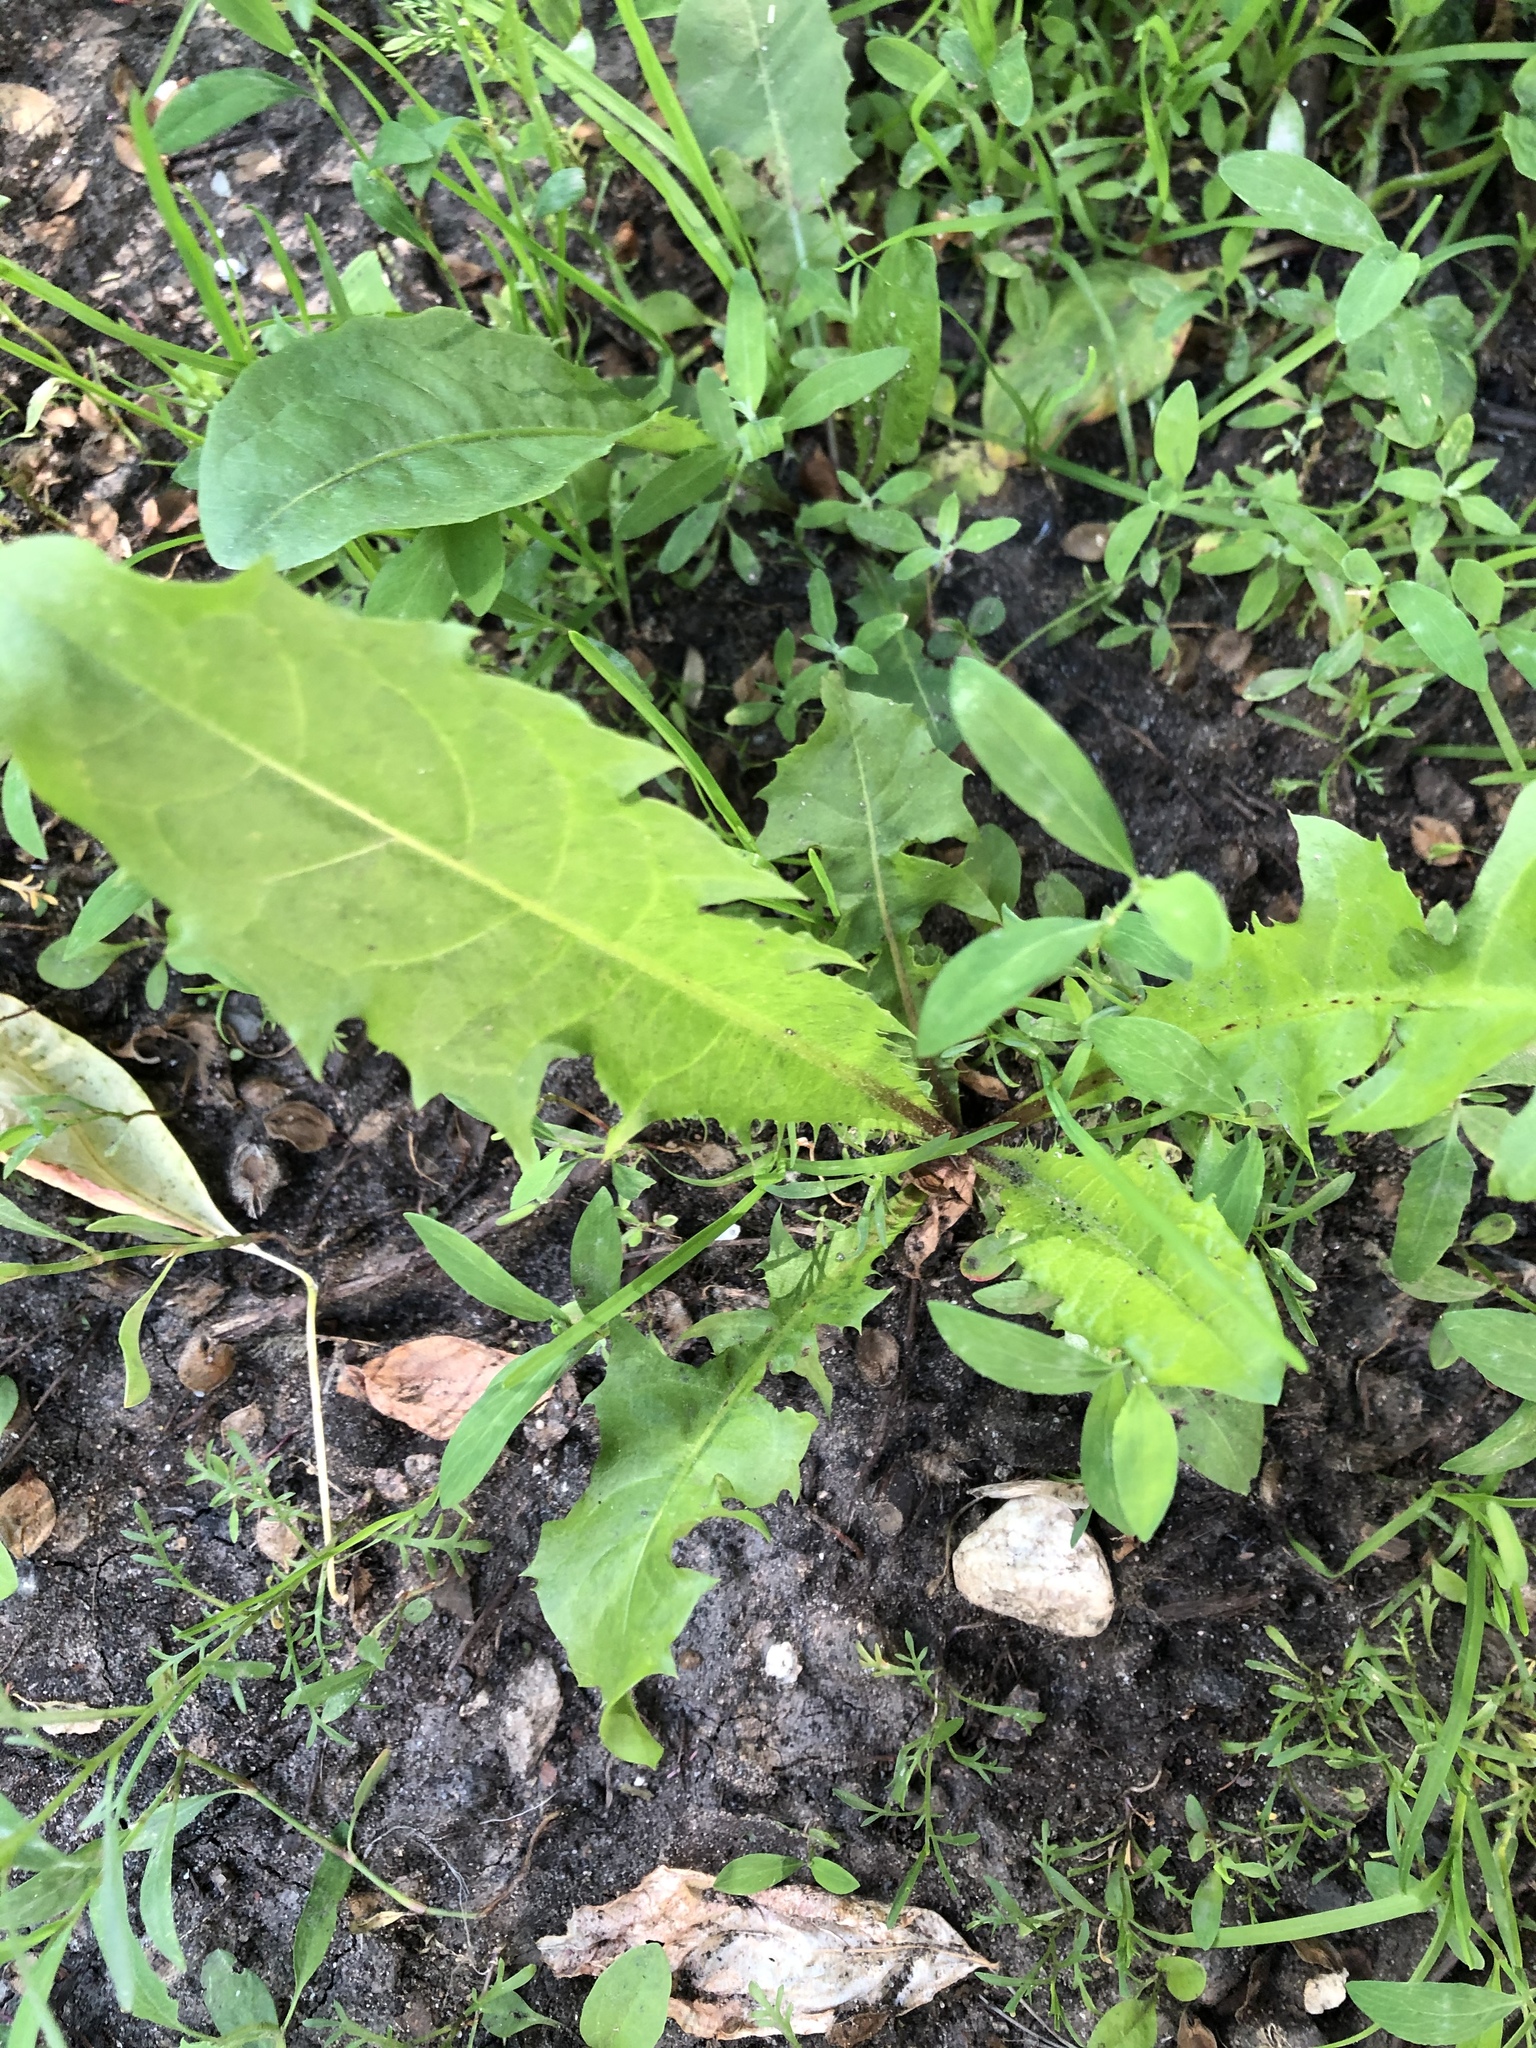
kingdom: Plantae
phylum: Tracheophyta
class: Magnoliopsida
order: Asterales
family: Asteraceae
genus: Taraxacum
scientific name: Taraxacum officinale
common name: Common dandelion
